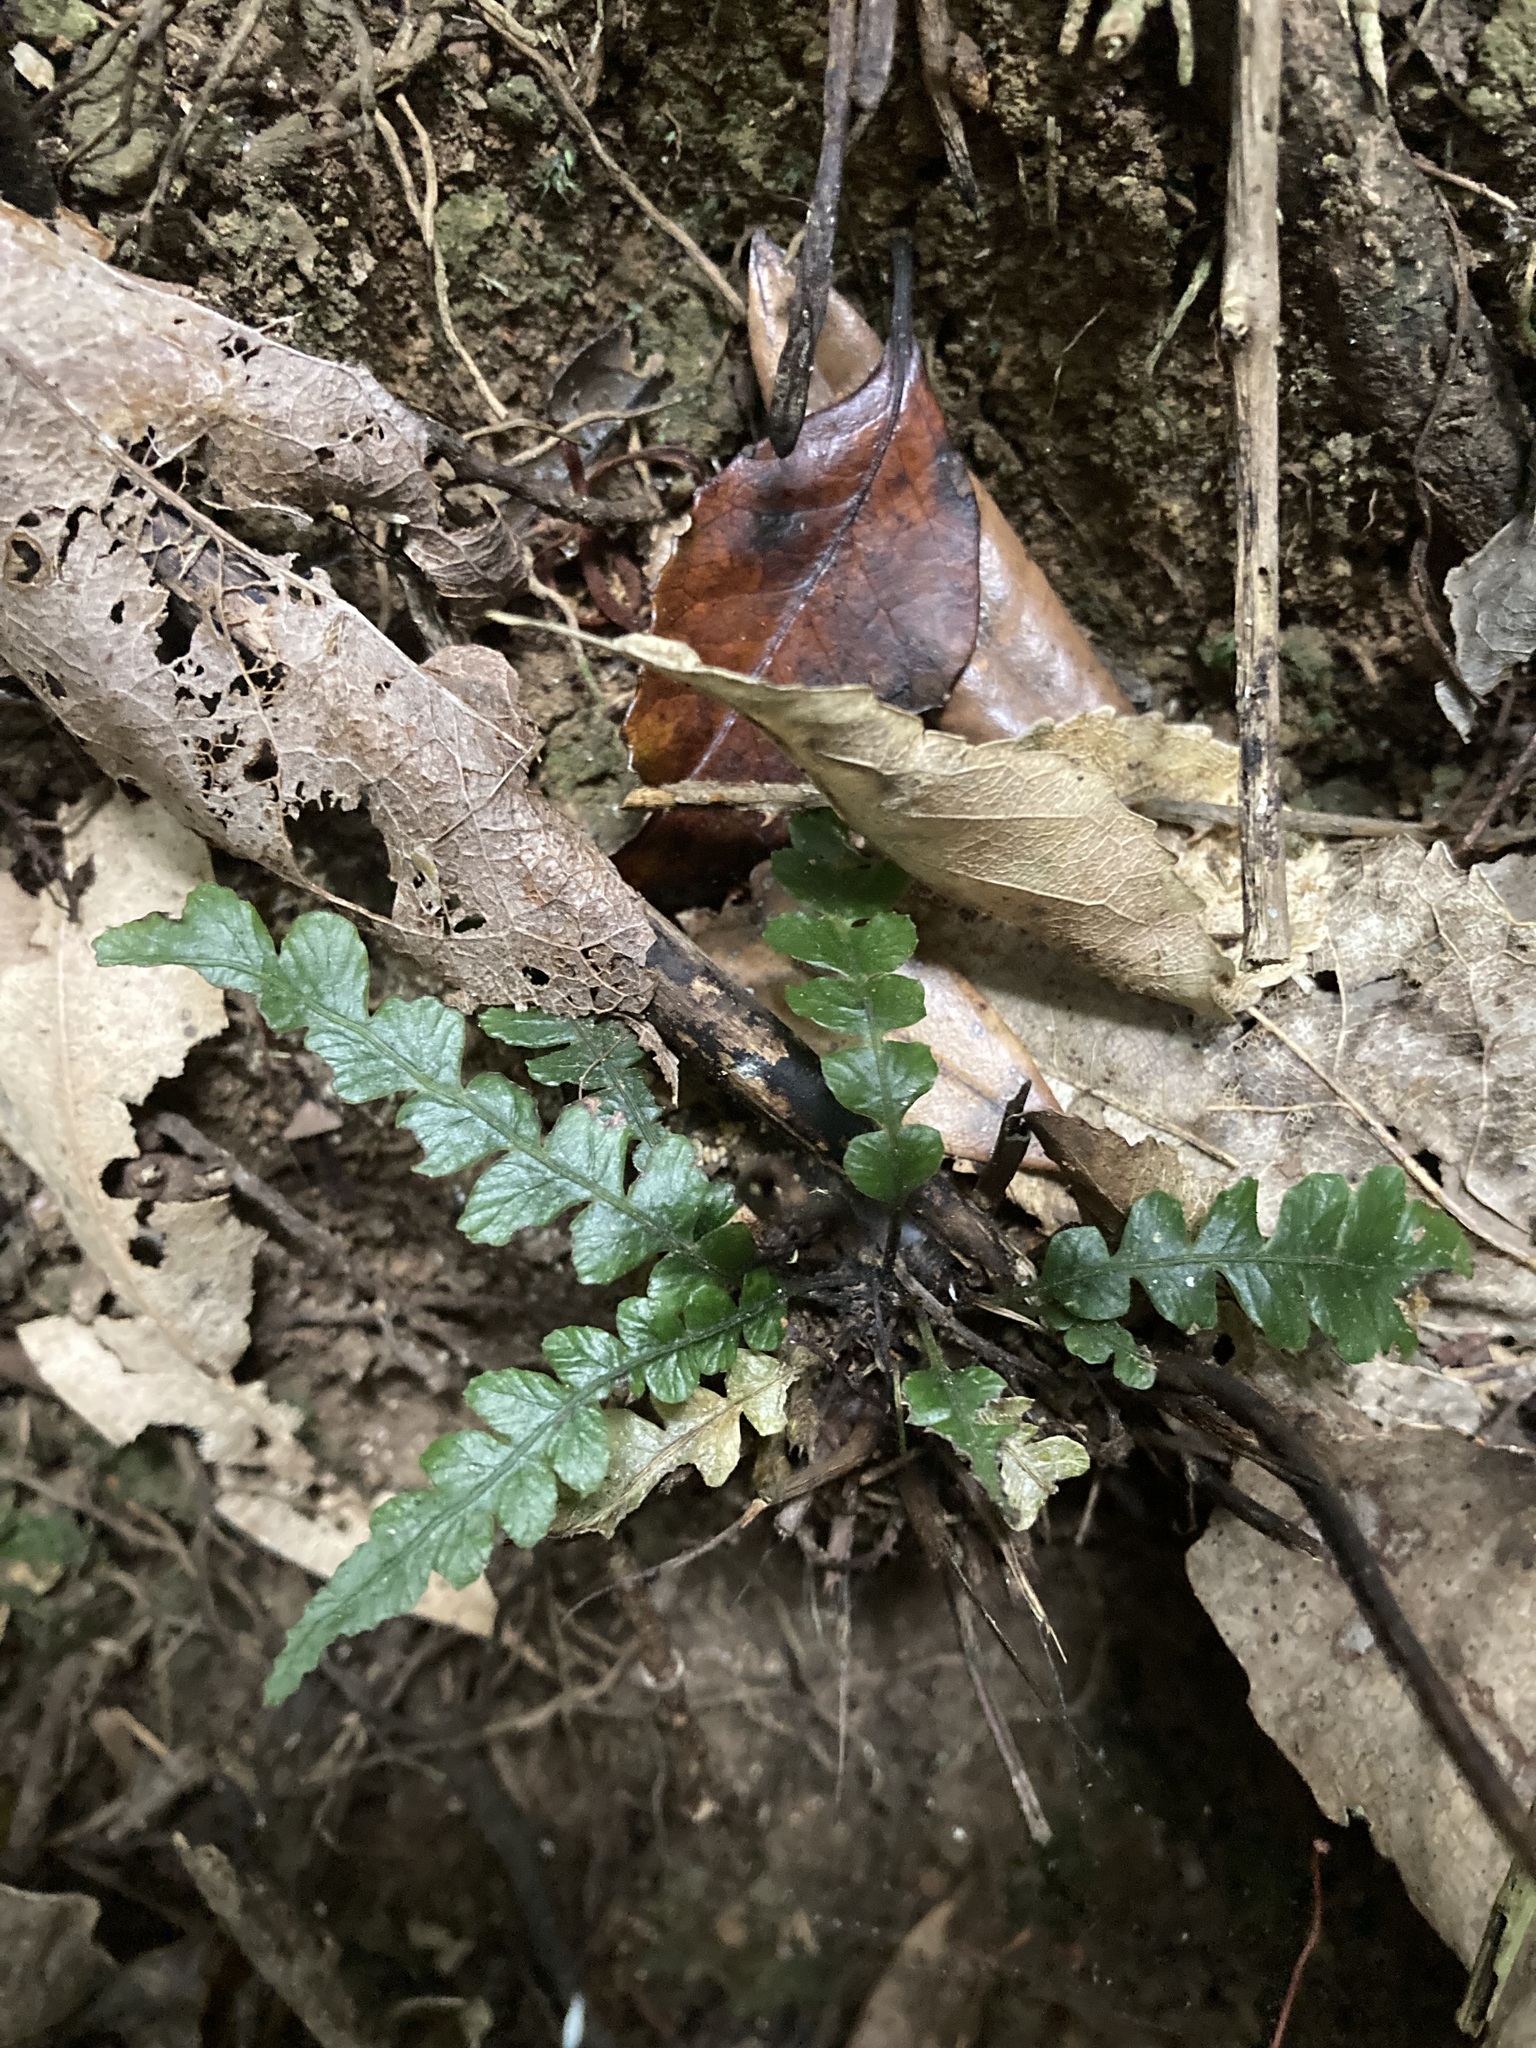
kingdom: Plantae
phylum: Tracheophyta
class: Polypodiopsida
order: Polypodiales
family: Blechnaceae
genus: Austroblechnum
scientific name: Austroblechnum membranaceum
